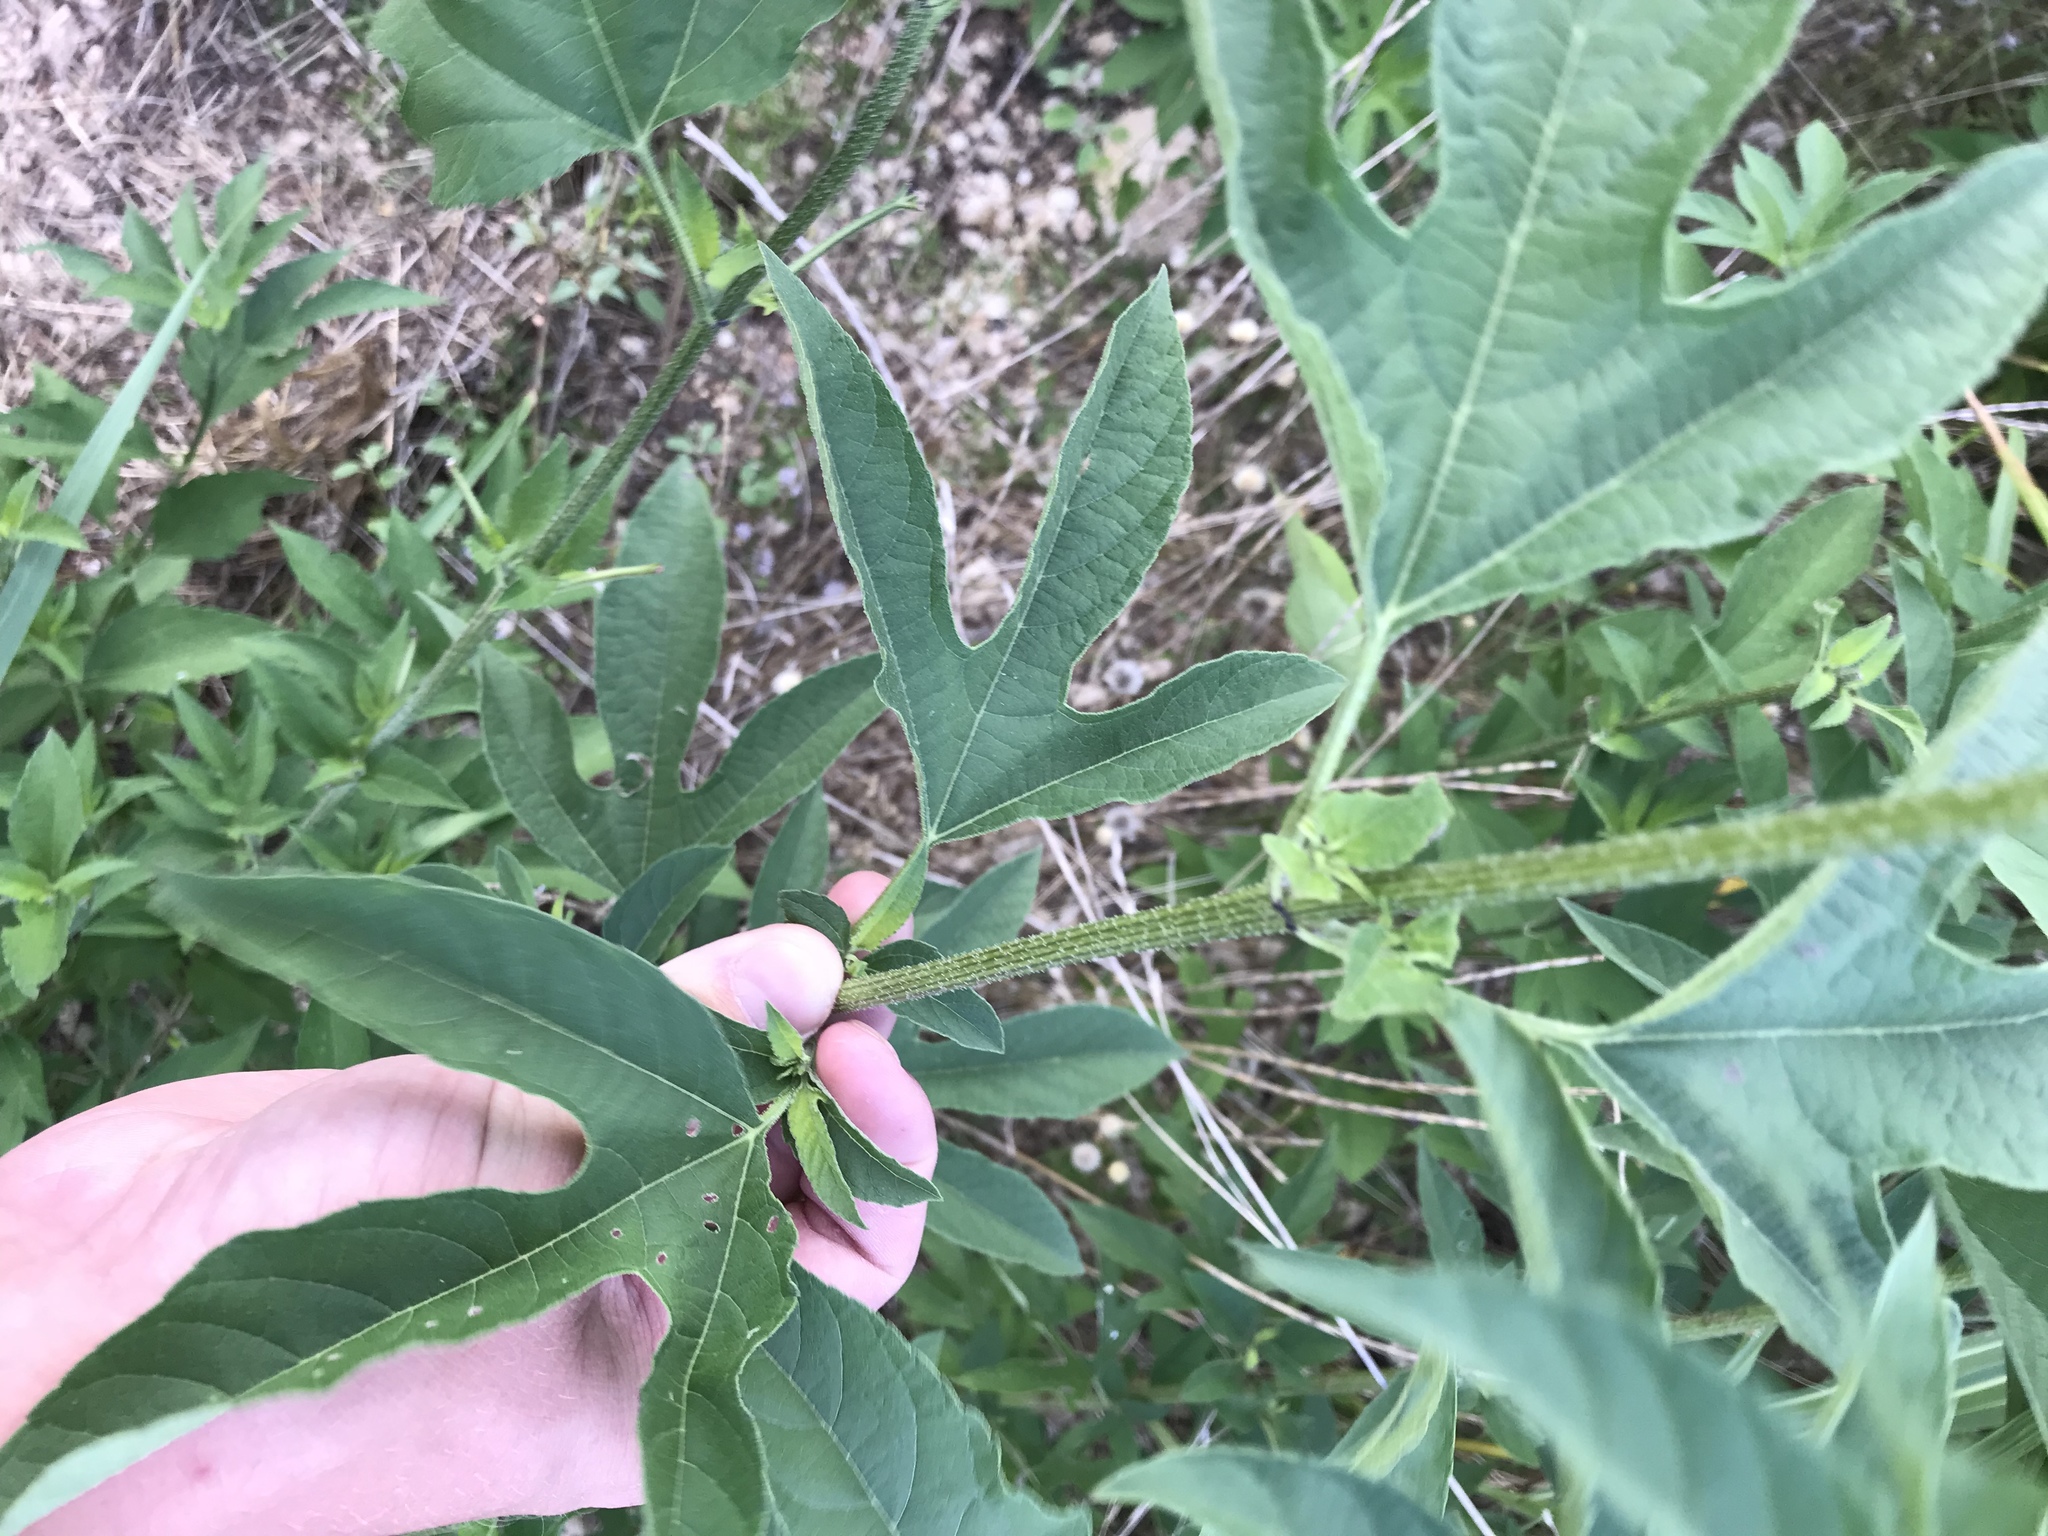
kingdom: Plantae
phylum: Tracheophyta
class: Magnoliopsida
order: Asterales
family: Asteraceae
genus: Ambrosia
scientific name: Ambrosia trifida
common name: Giant ragweed
